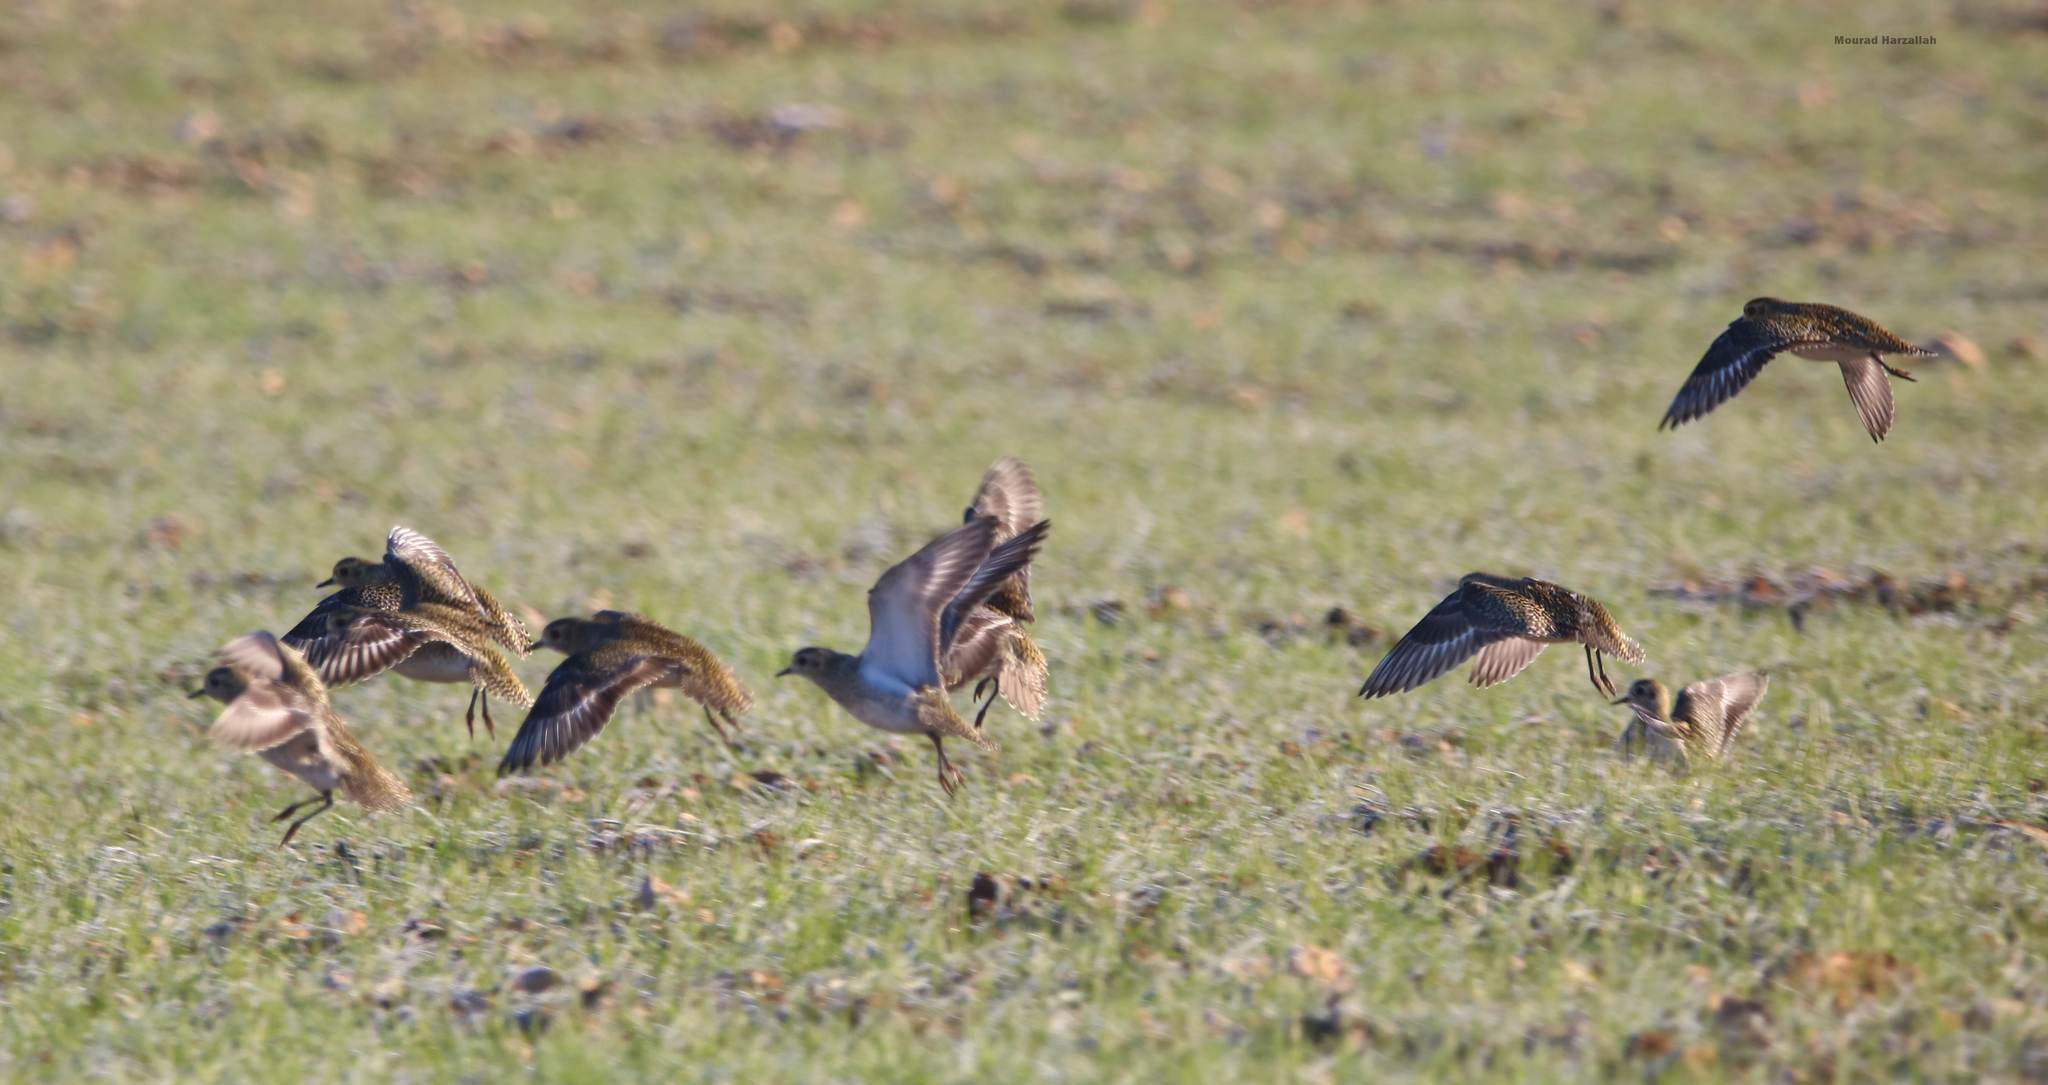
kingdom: Animalia
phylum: Chordata
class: Aves
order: Charadriiformes
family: Charadriidae
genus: Pluvialis
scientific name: Pluvialis apricaria
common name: European golden plover
